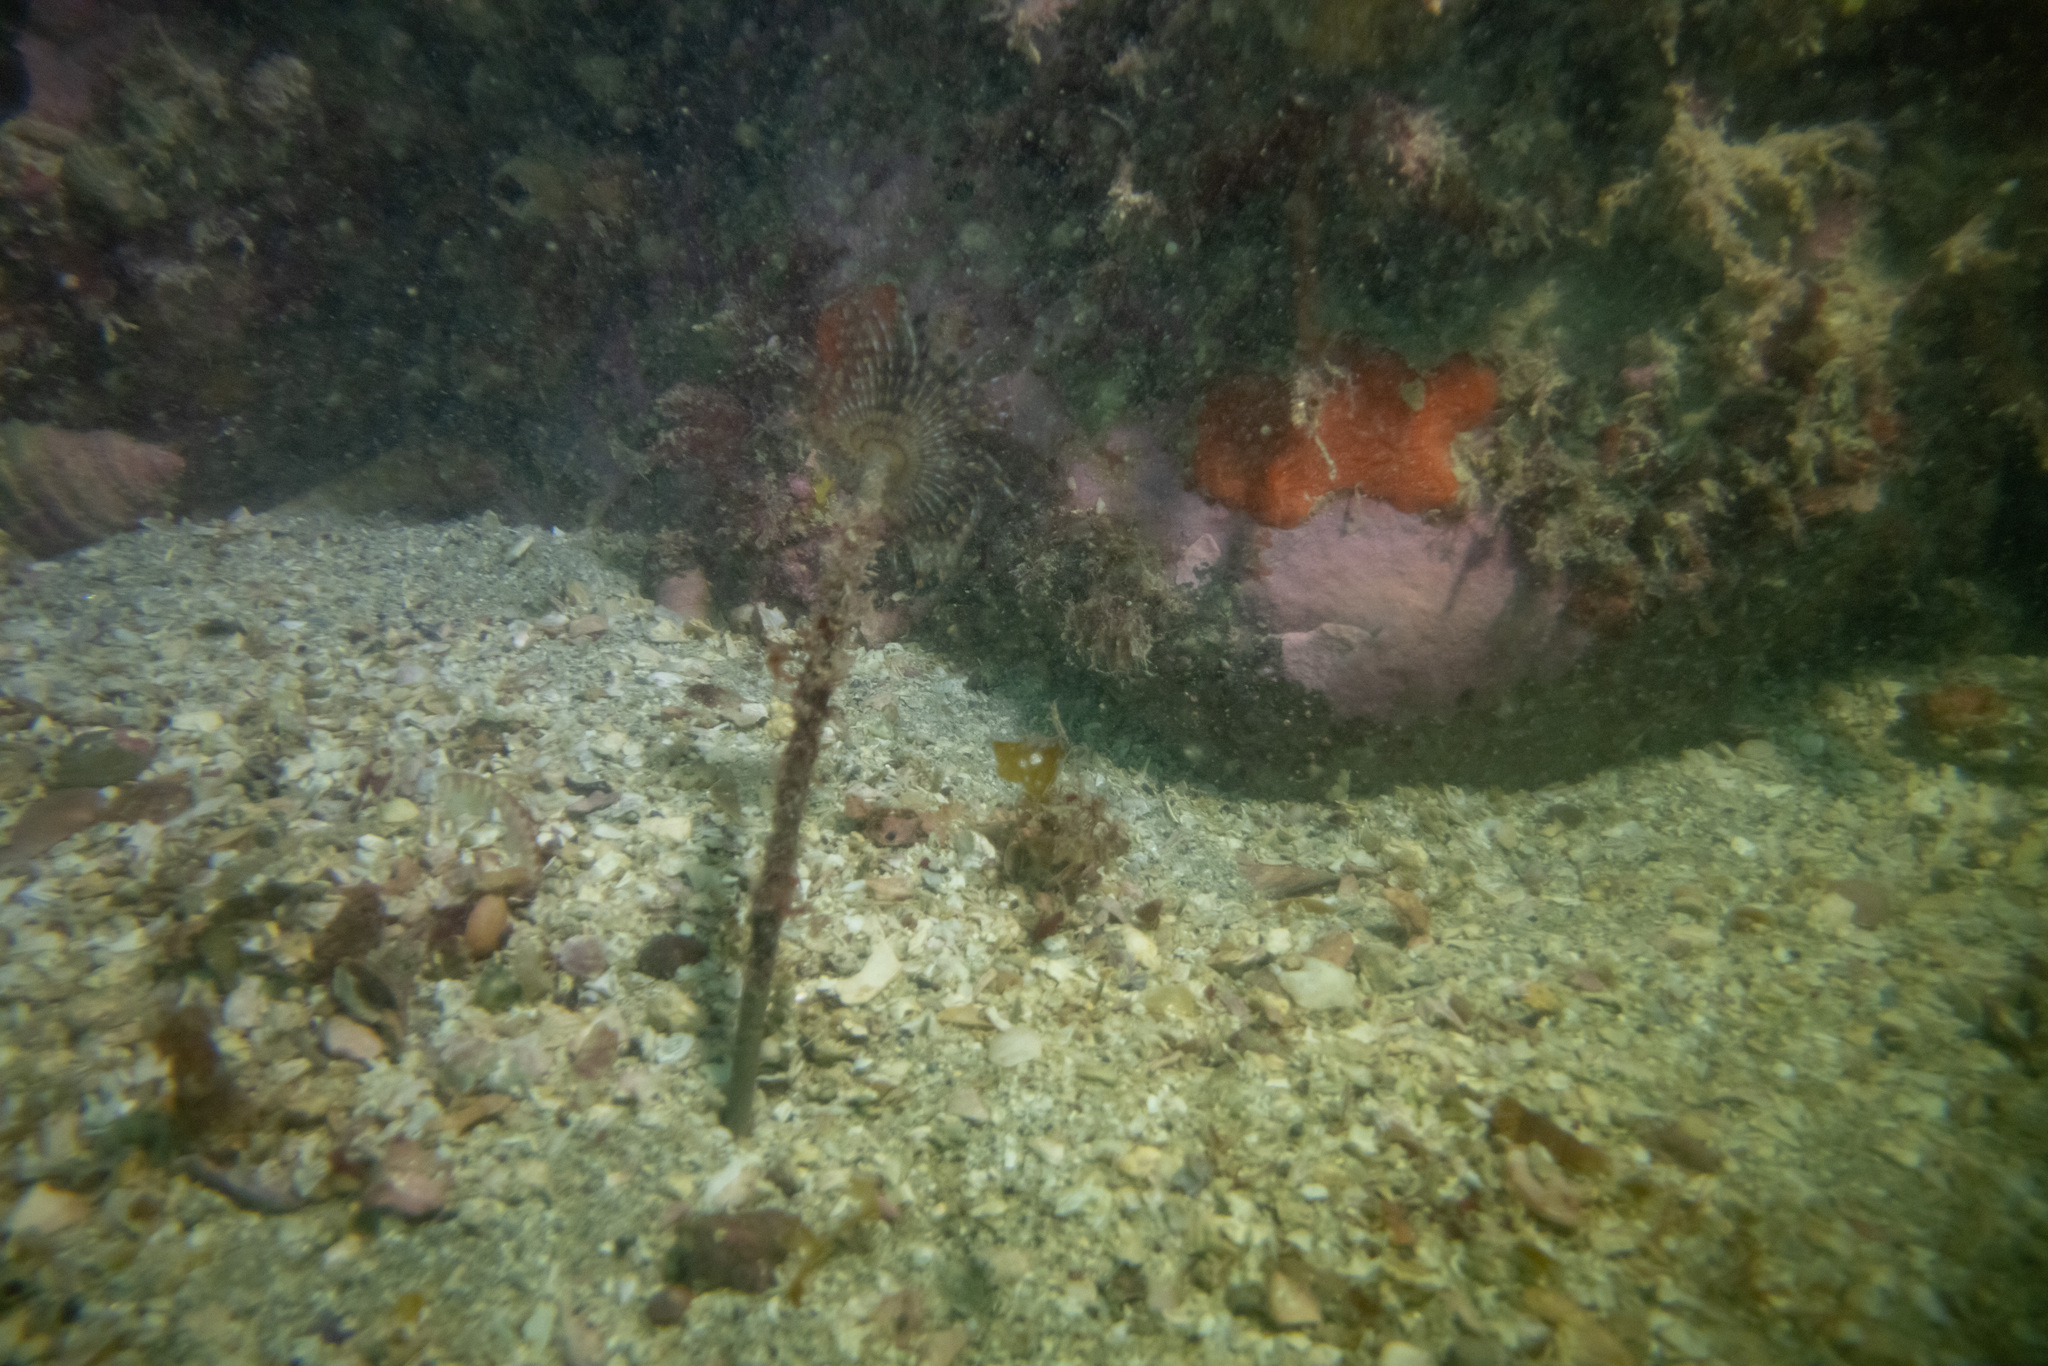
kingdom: Animalia
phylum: Annelida
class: Polychaeta
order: Sabellida
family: Sabellidae
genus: Sabella
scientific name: Sabella spallanzanii
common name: Feather duster worm
